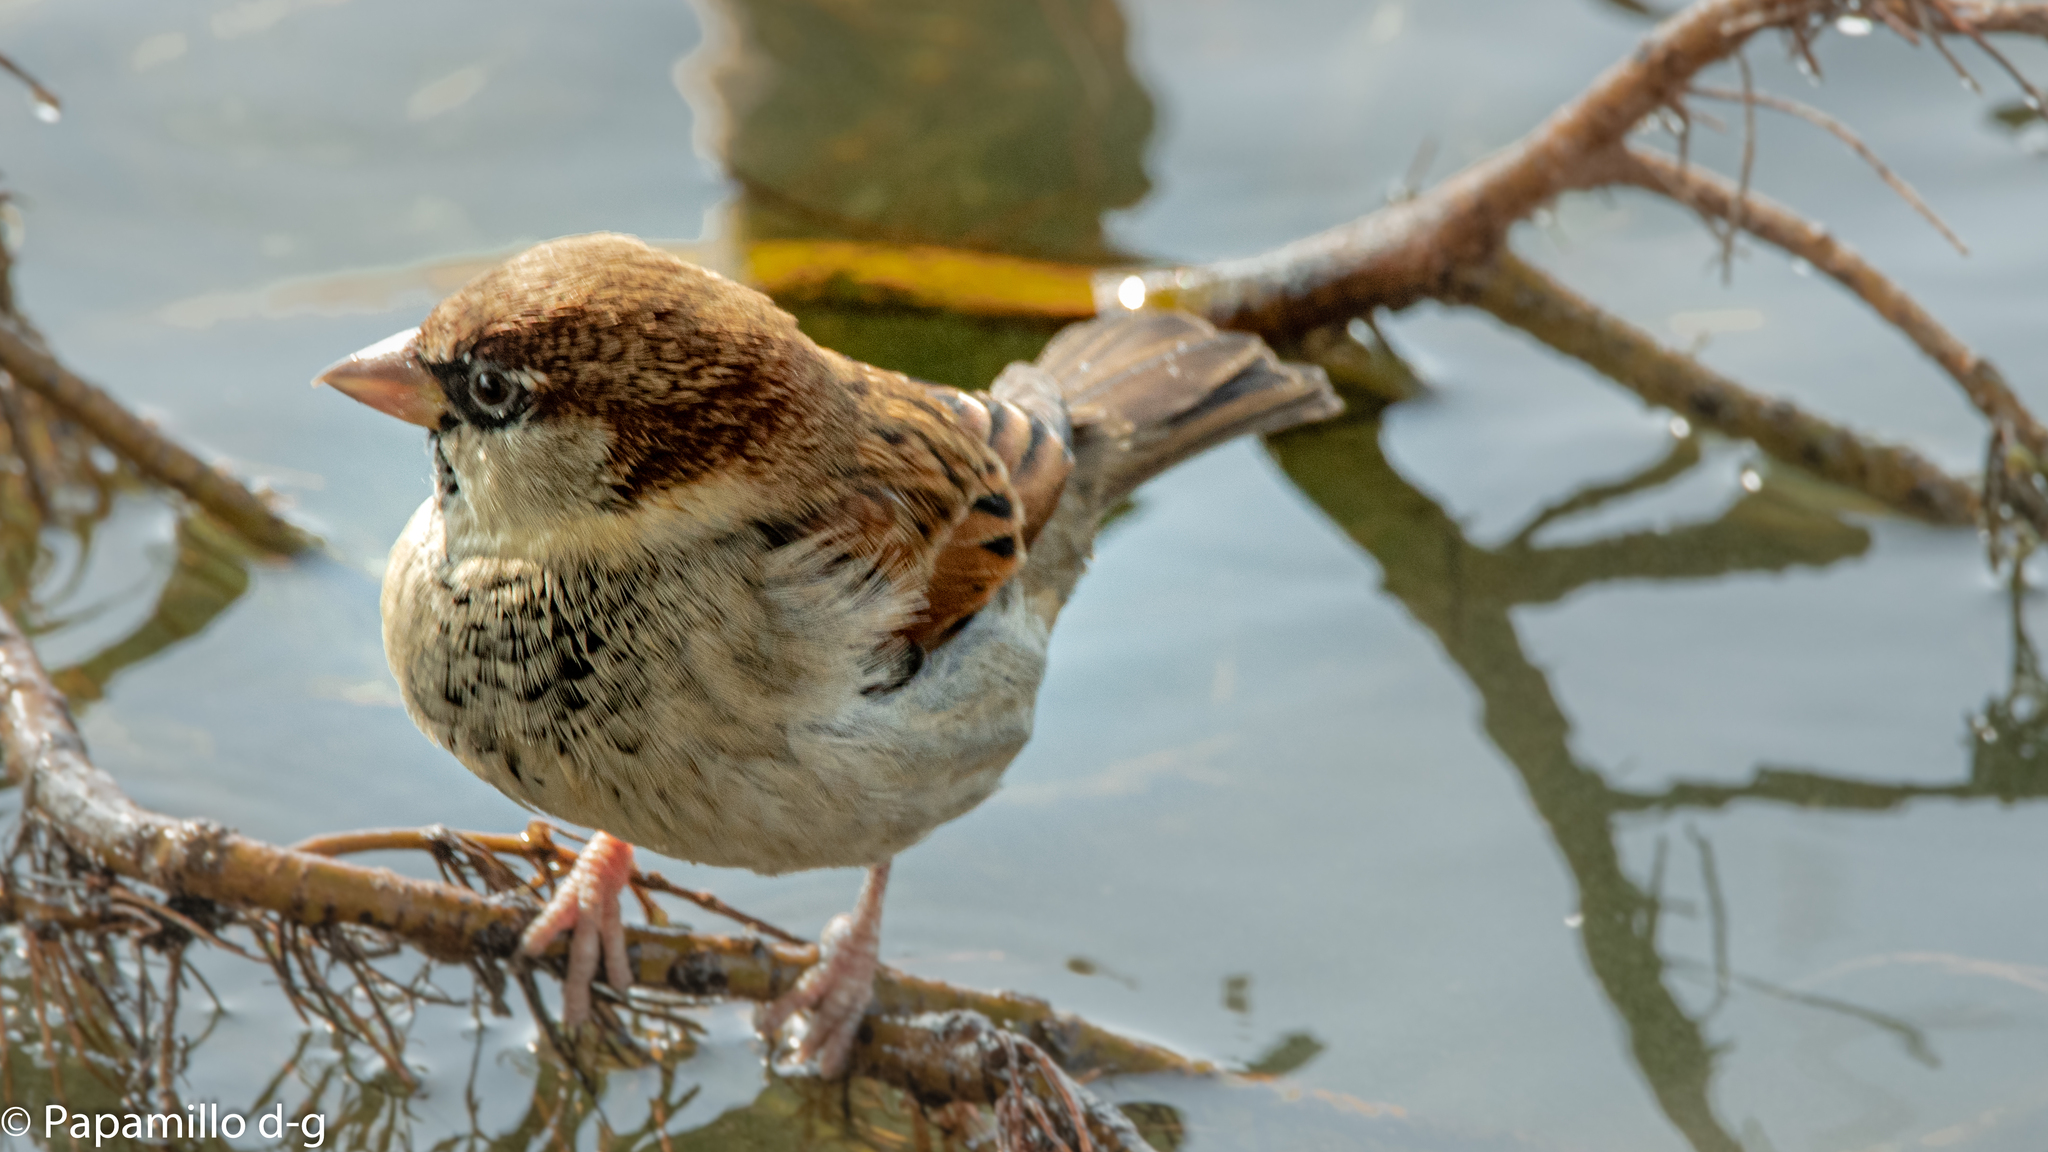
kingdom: Animalia
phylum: Chordata
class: Aves
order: Passeriformes
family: Passeridae
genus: Passer
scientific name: Passer italiae
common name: Italian sparrow
